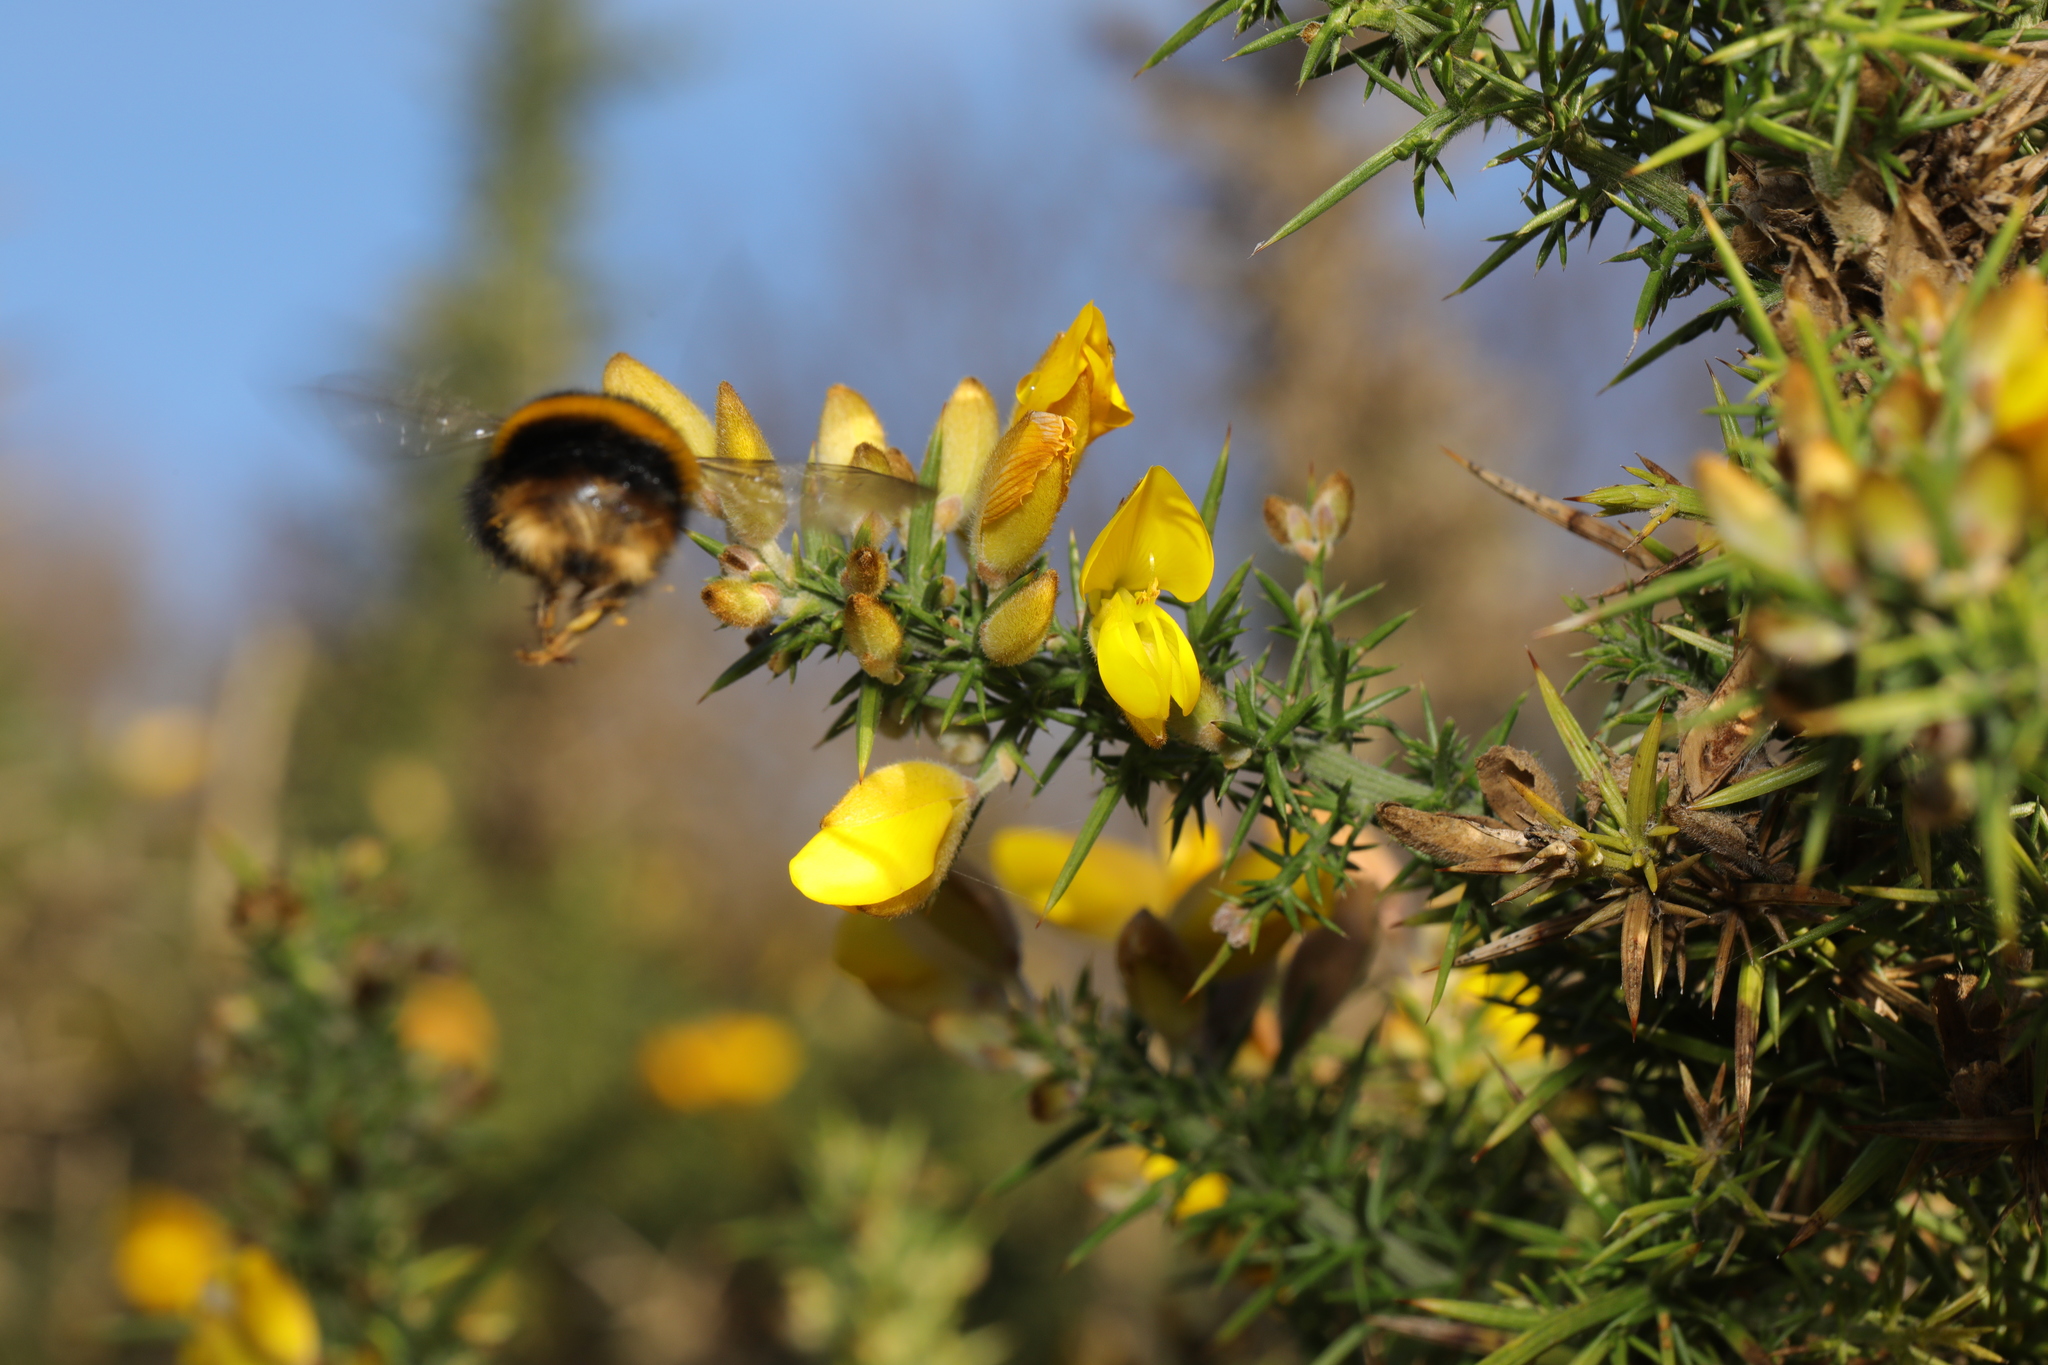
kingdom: Animalia
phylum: Arthropoda
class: Insecta
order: Hymenoptera
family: Apidae
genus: Bombus
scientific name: Bombus terrestris
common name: Buff-tailed bumblebee
